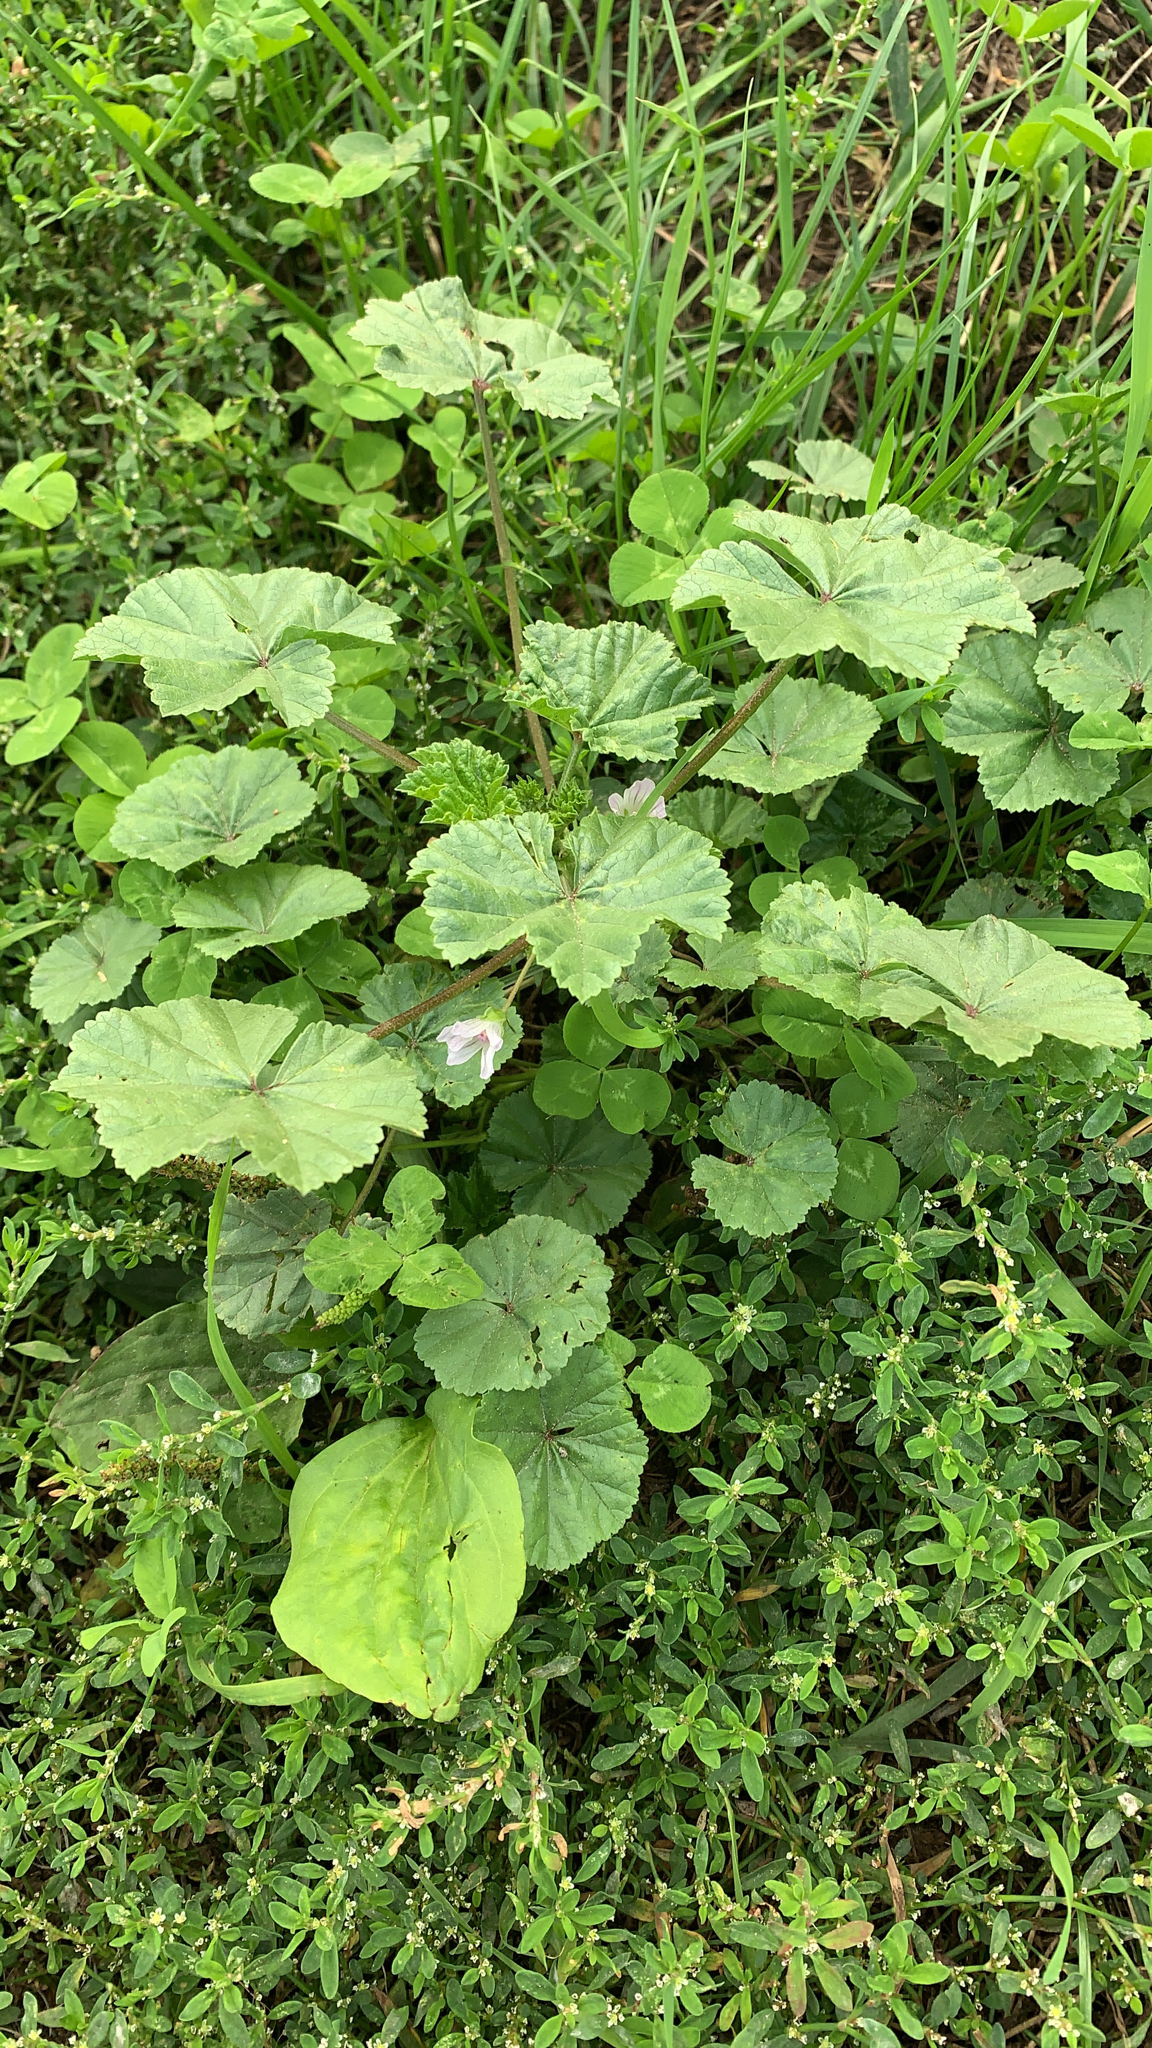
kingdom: Plantae
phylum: Tracheophyta
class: Magnoliopsida
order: Malvales
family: Malvaceae
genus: Malva
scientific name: Malva neglecta
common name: Common mallow
